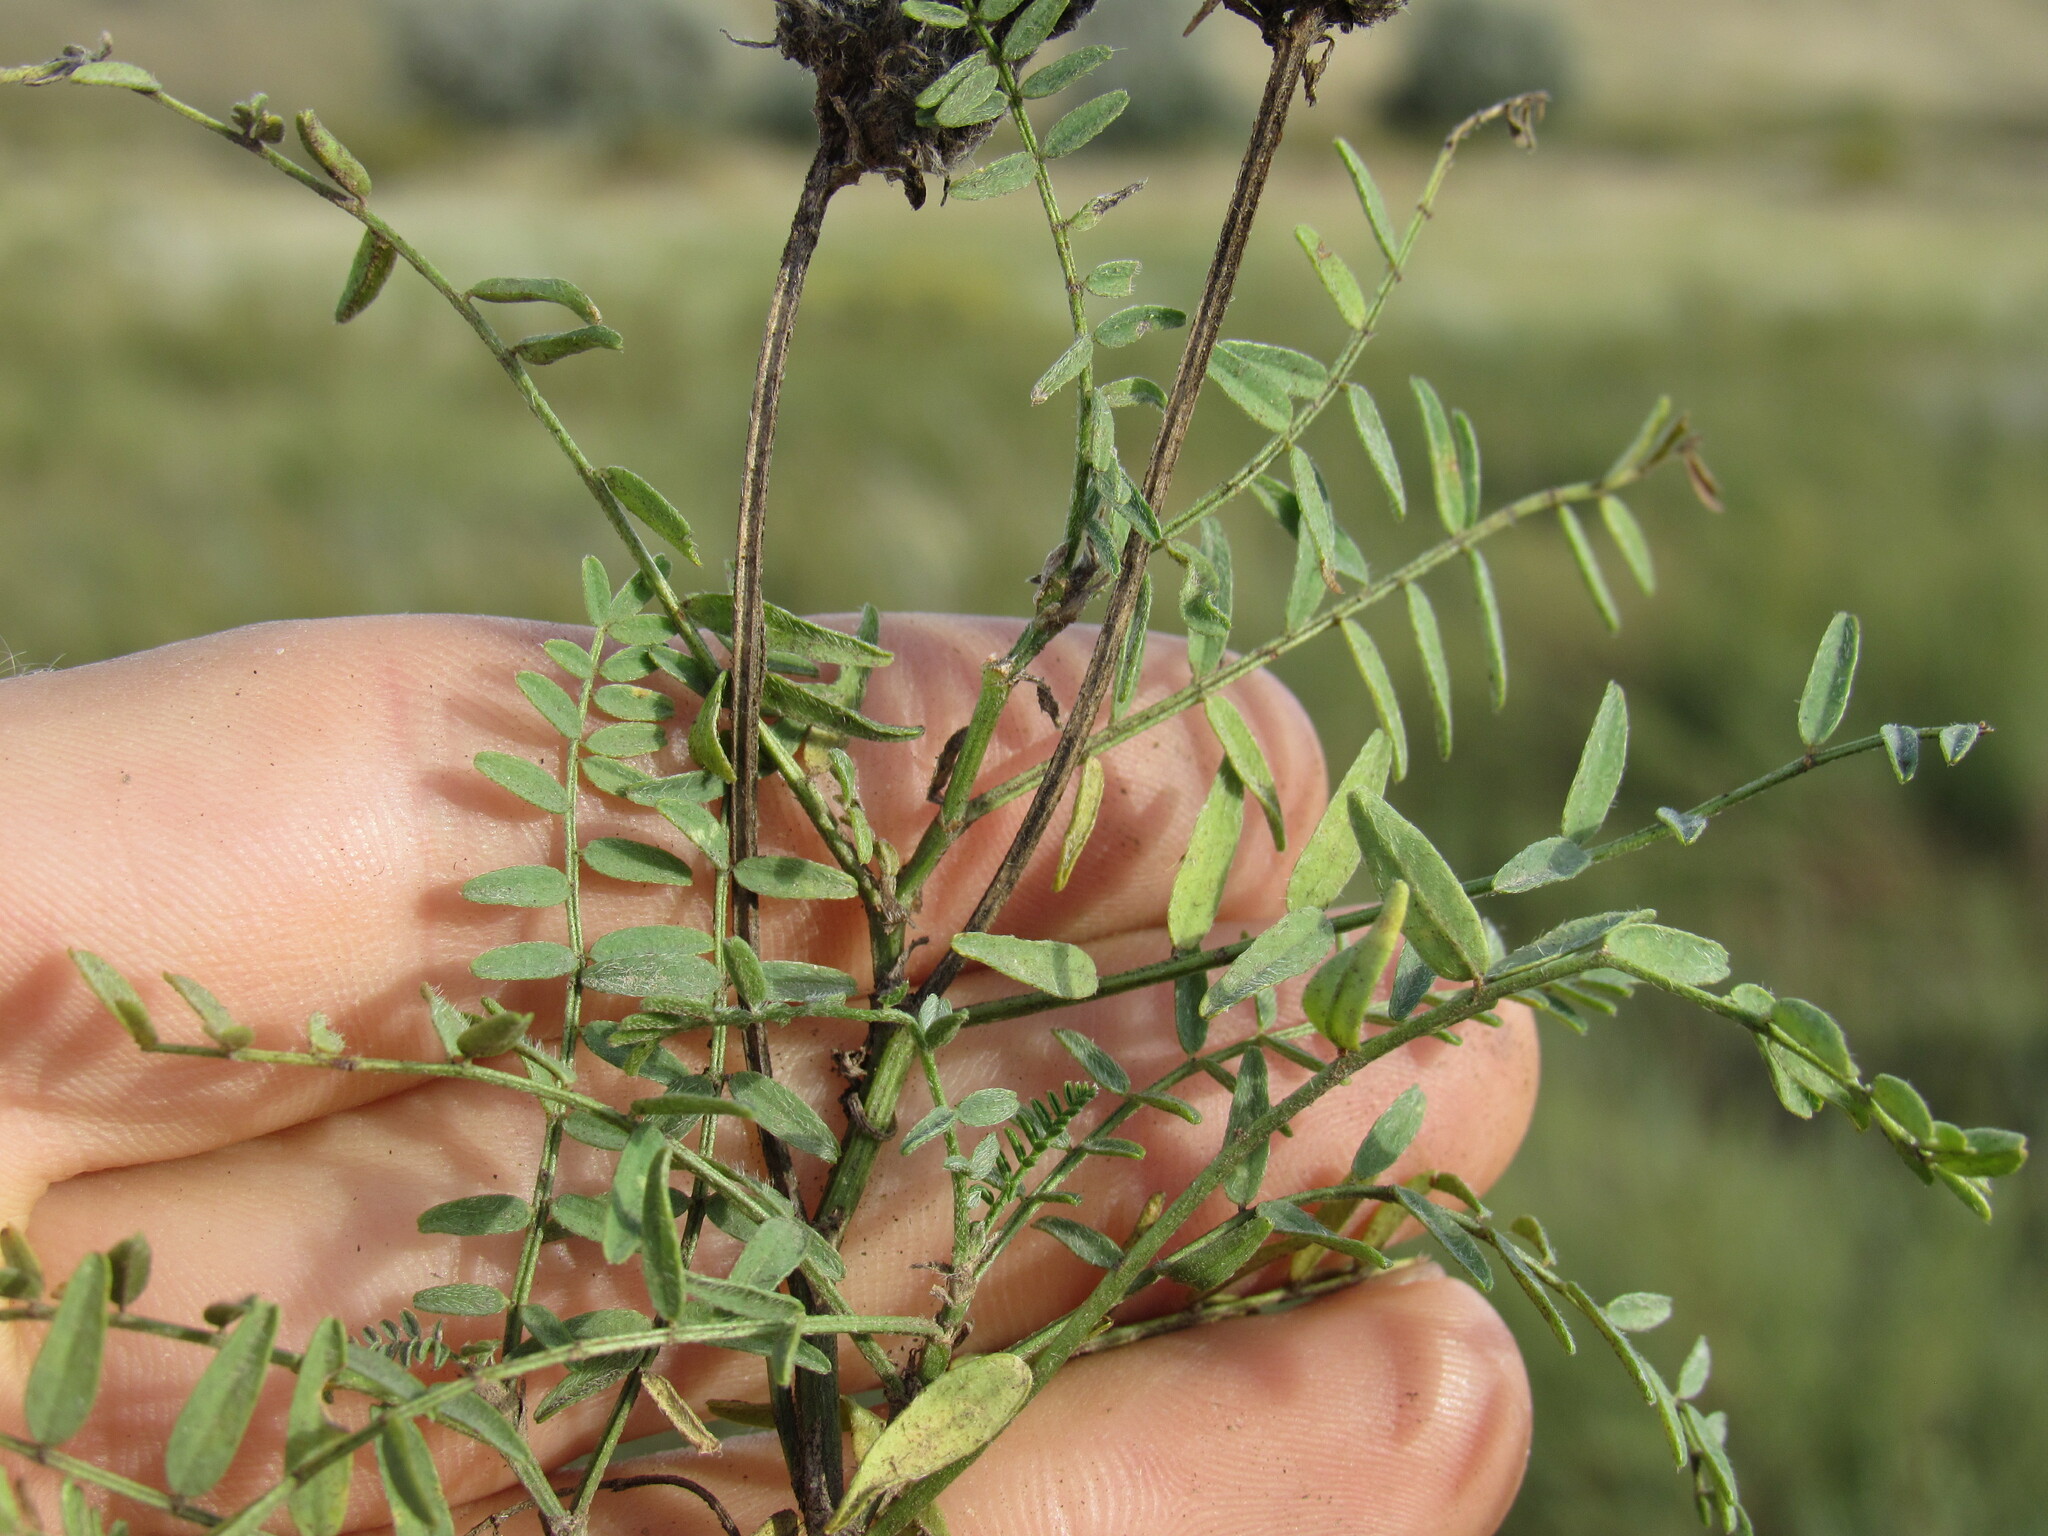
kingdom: Plantae
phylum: Tracheophyta
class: Magnoliopsida
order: Fabales
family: Fabaceae
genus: Astragalus
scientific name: Astragalus cicer
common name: Chick-pea milk-vetch
